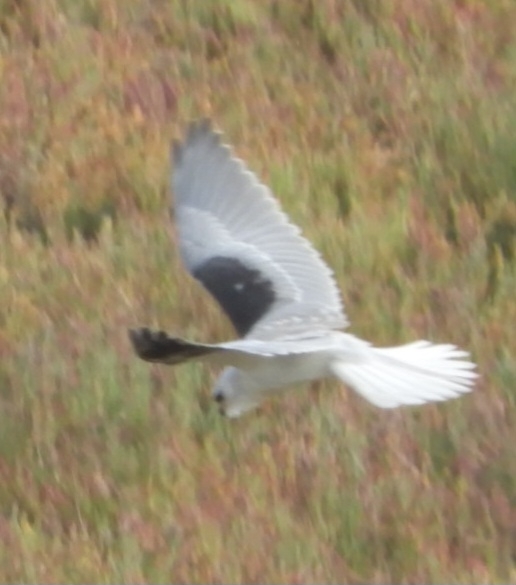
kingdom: Animalia
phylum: Chordata
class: Aves
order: Accipitriformes
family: Accipitridae
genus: Elanus
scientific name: Elanus leucurus
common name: White-tailed kite
